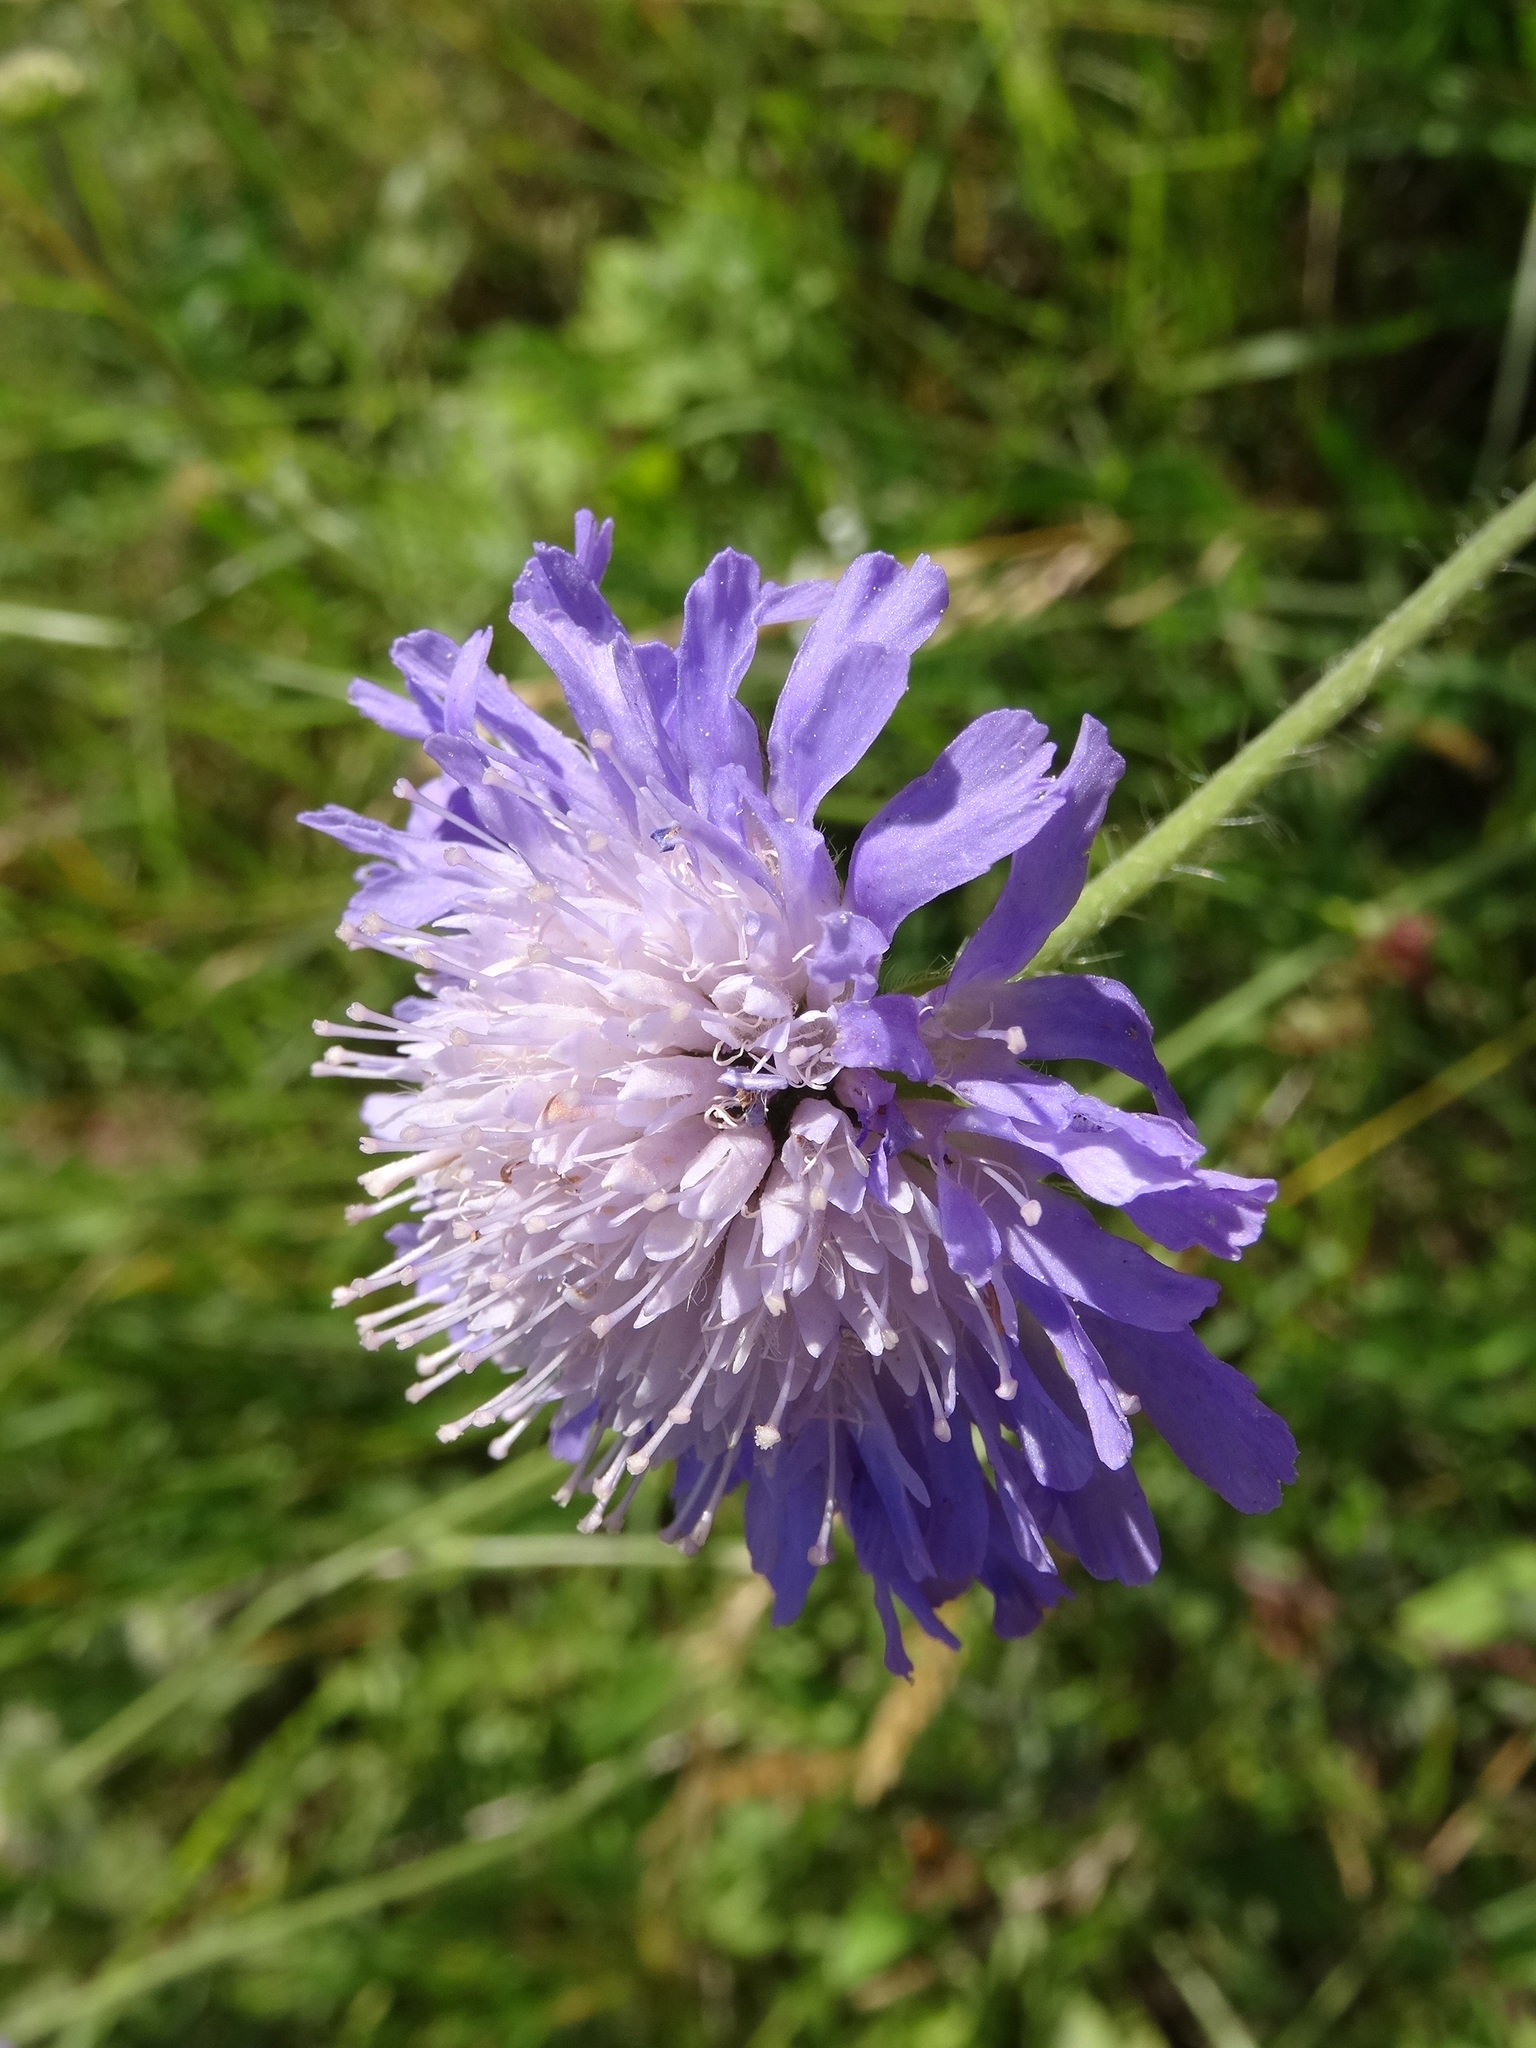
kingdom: Plantae
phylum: Tracheophyta
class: Magnoliopsida
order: Dipsacales
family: Caprifoliaceae
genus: Knautia
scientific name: Knautia arvensis
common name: Field scabiosa
